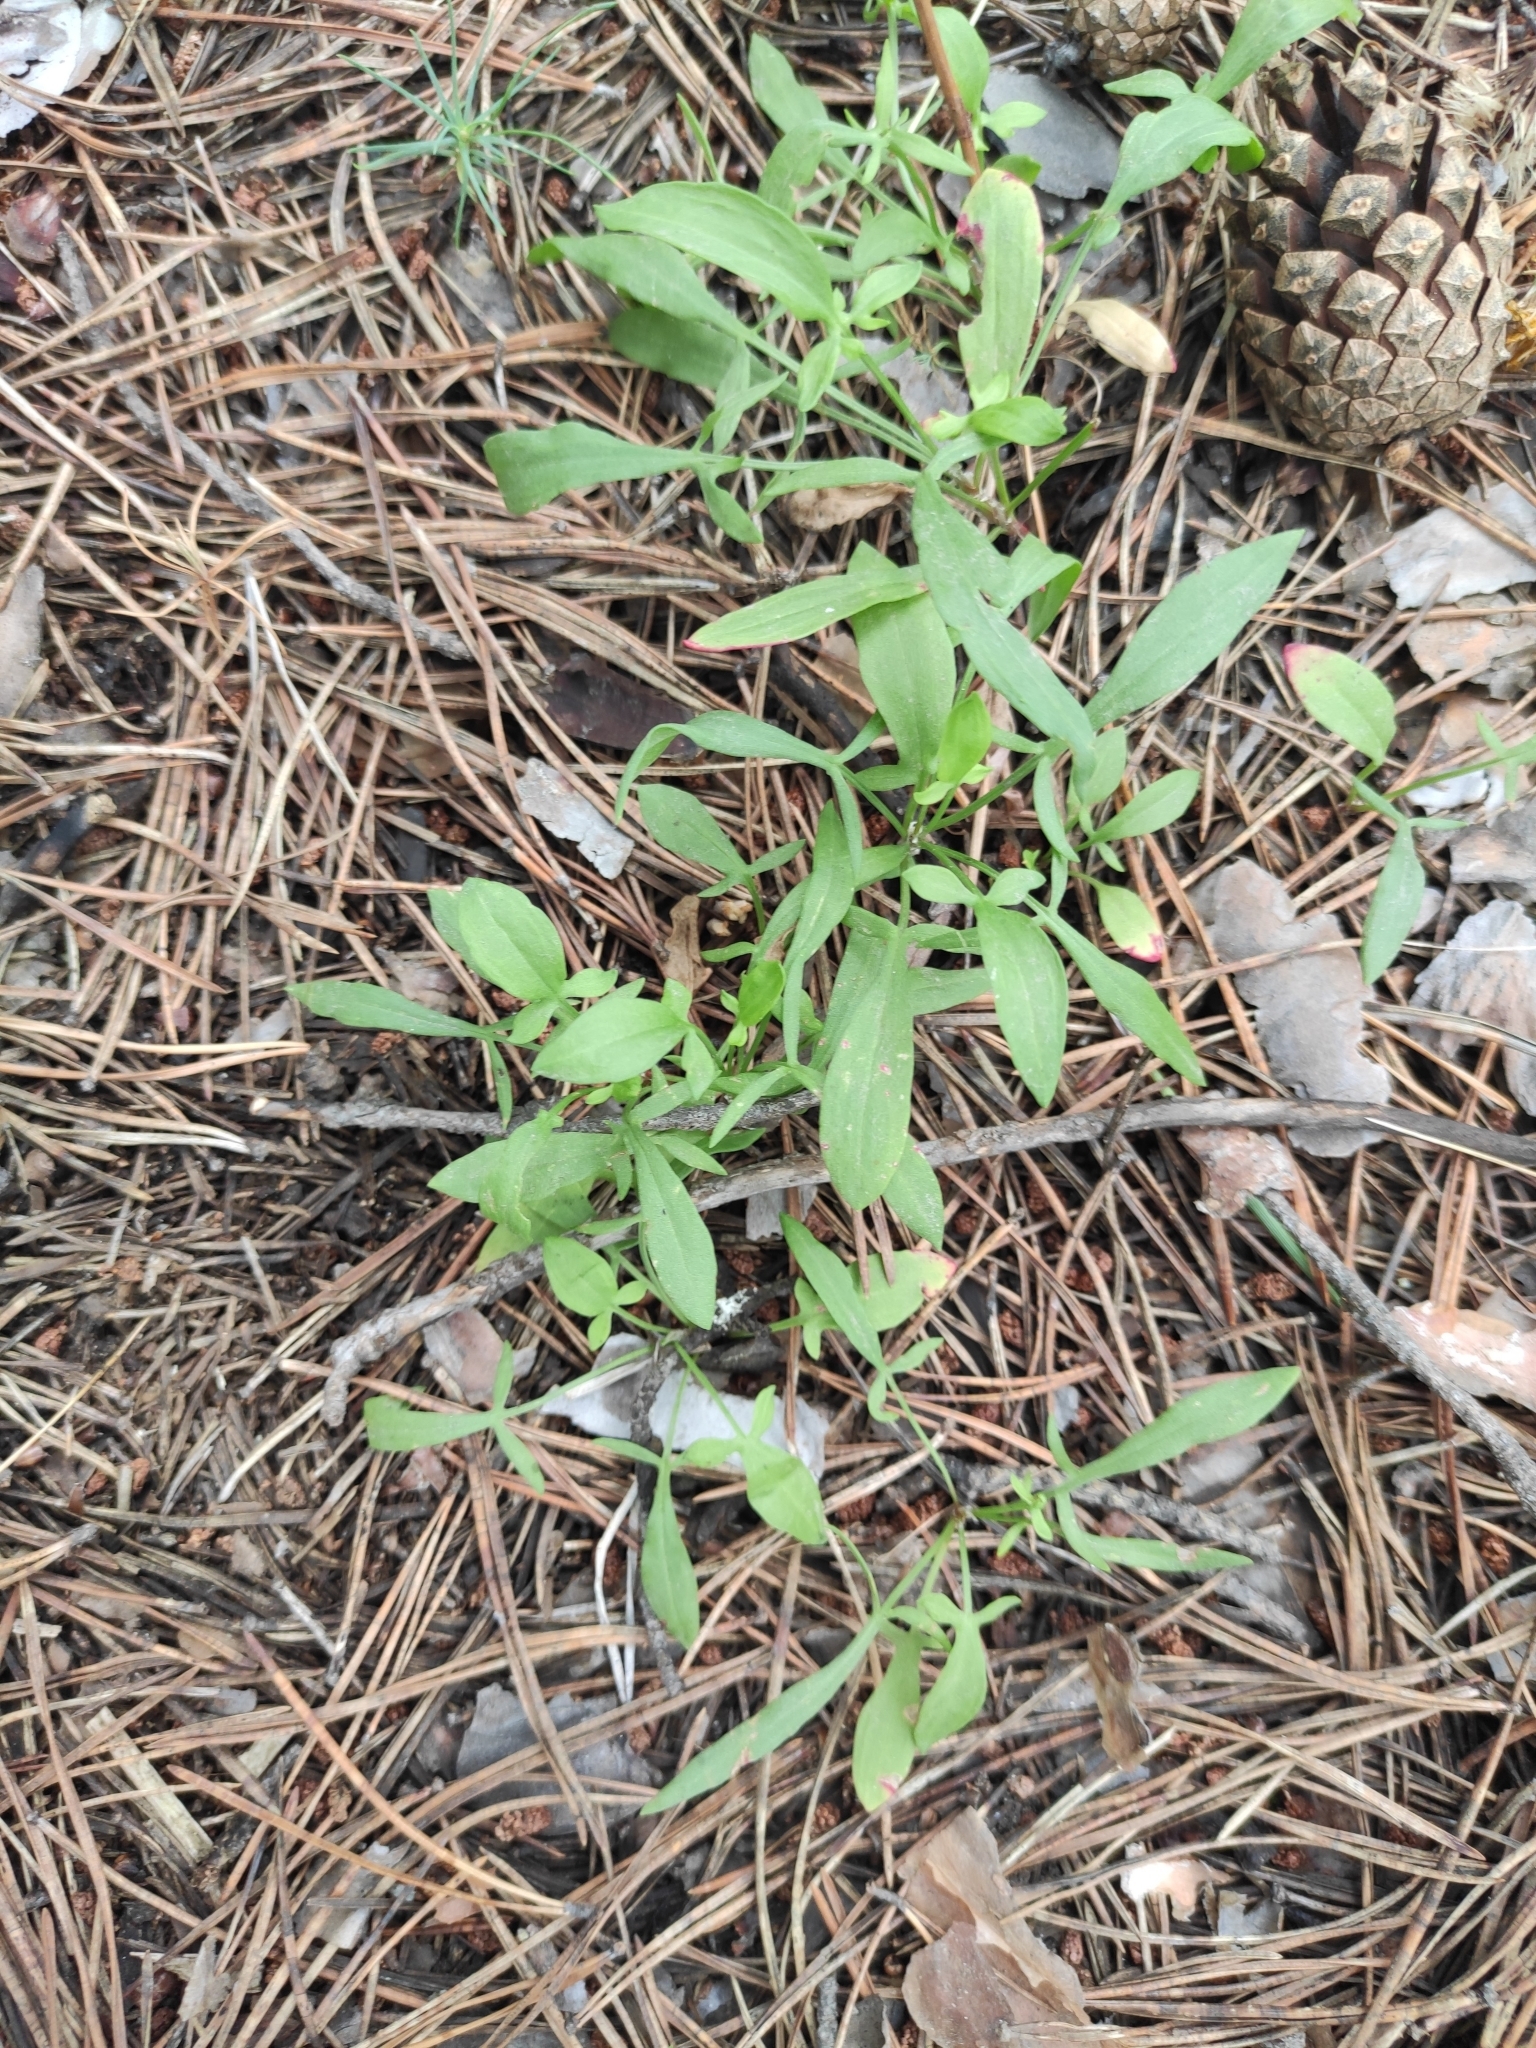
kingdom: Plantae
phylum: Tracheophyta
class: Magnoliopsida
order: Caryophyllales
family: Polygonaceae
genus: Rumex
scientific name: Rumex acetosella
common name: Common sheep sorrel
